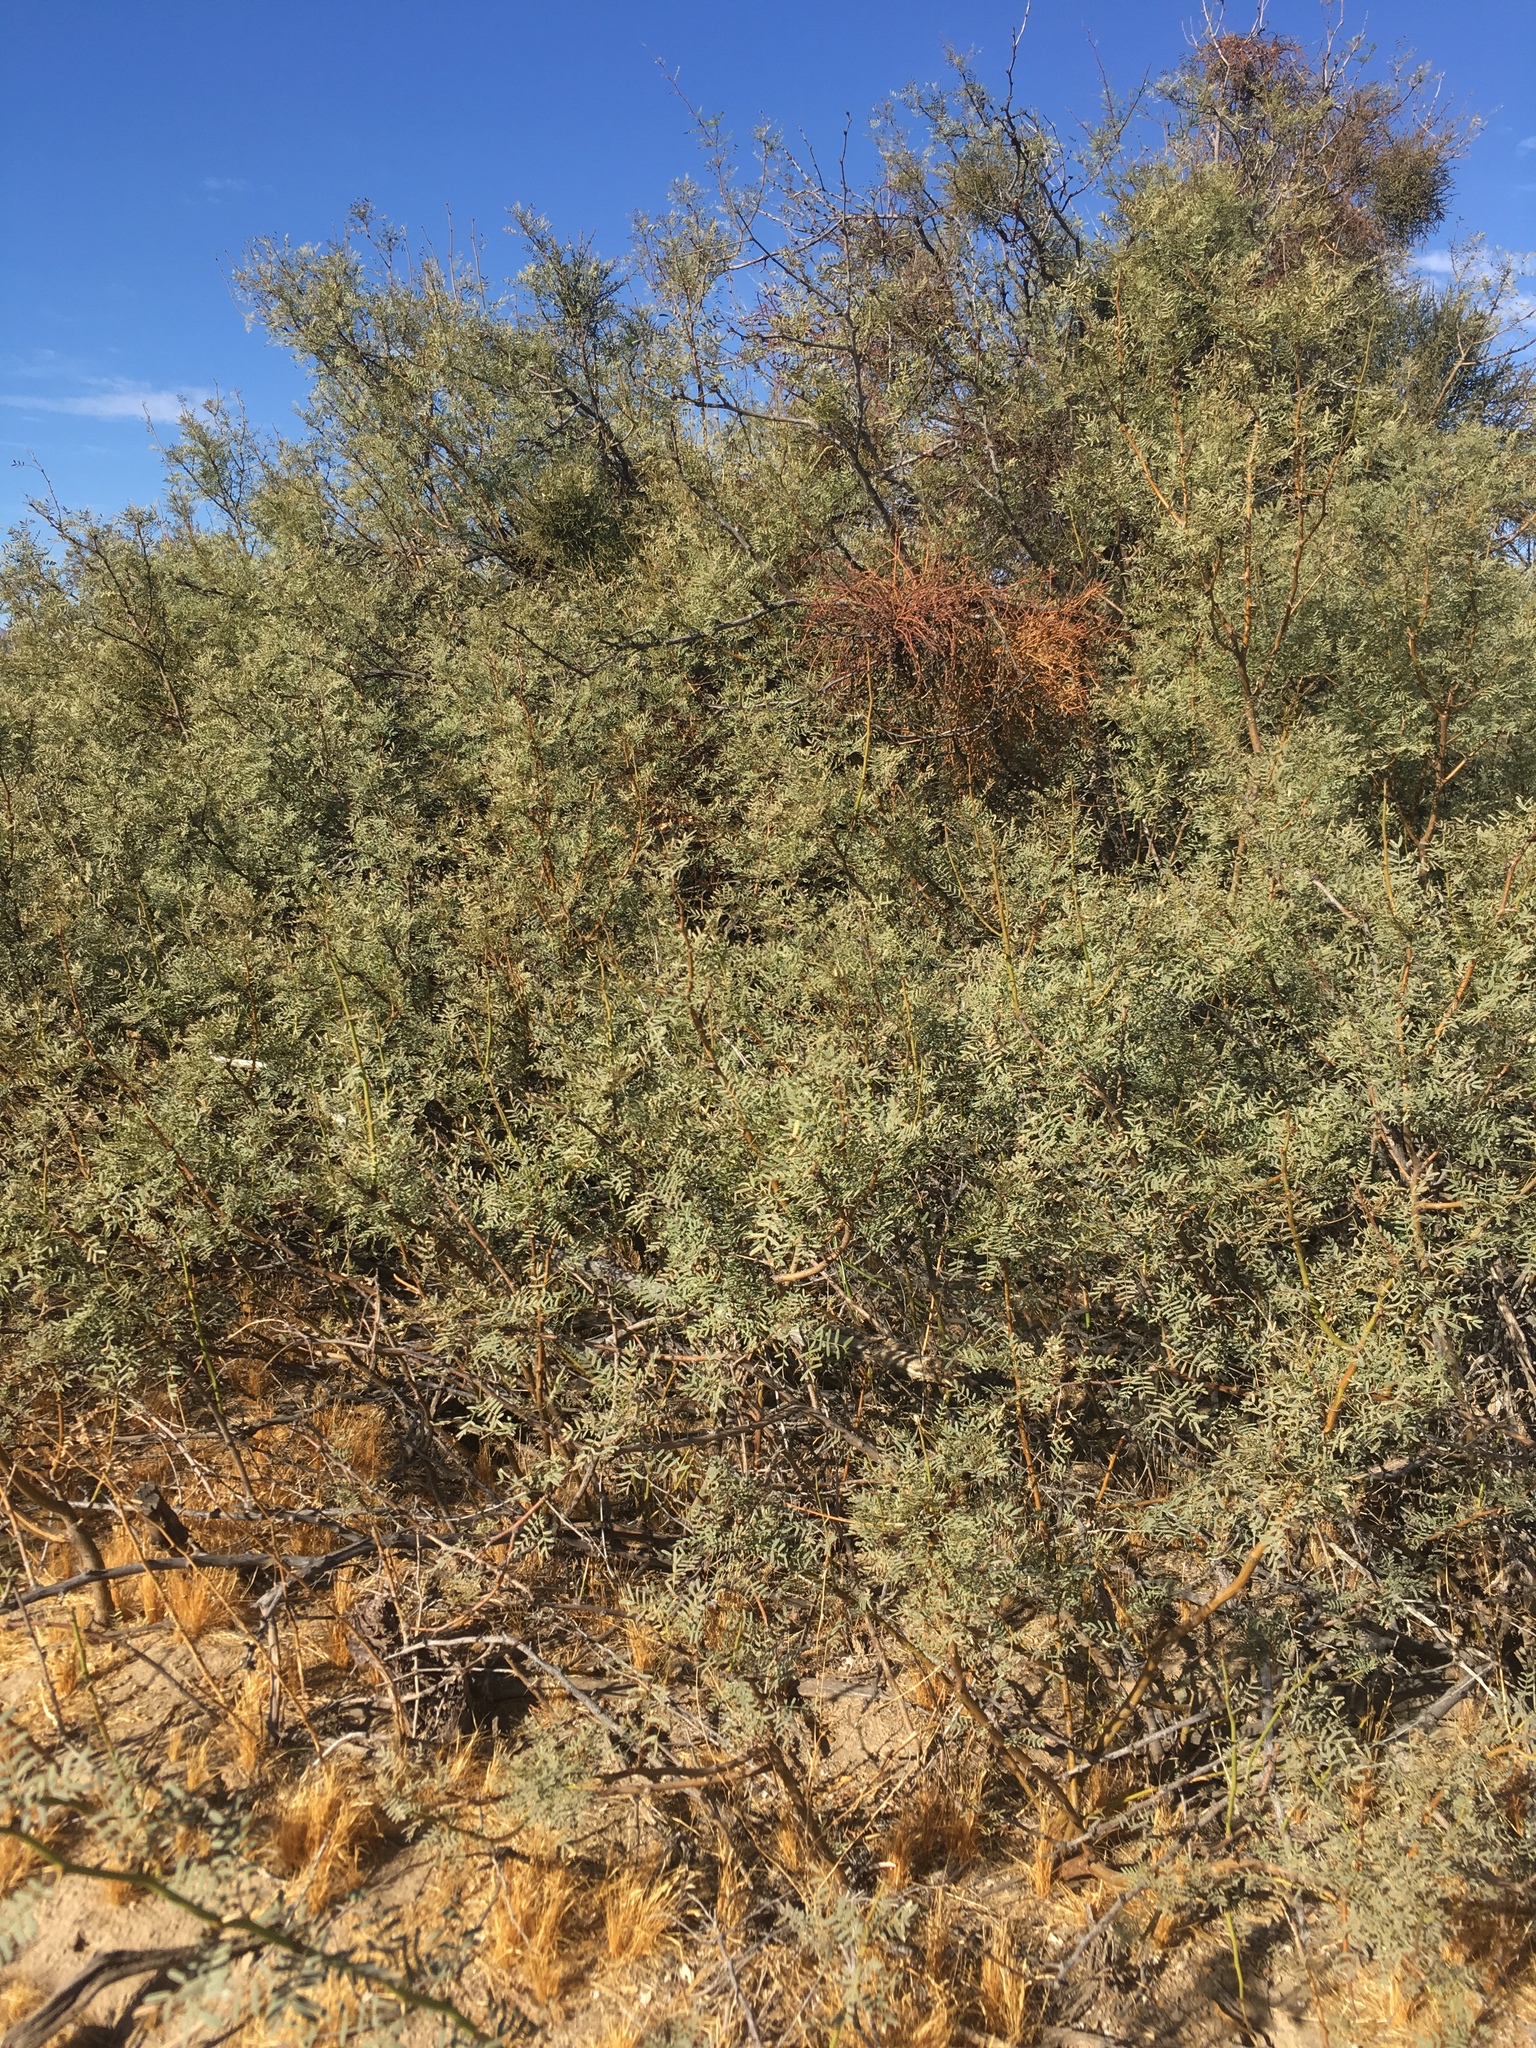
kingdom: Plantae
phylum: Tracheophyta
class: Magnoliopsida
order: Fabales
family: Fabaceae
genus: Prosopis
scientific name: Prosopis pubescens
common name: Screw-bean
